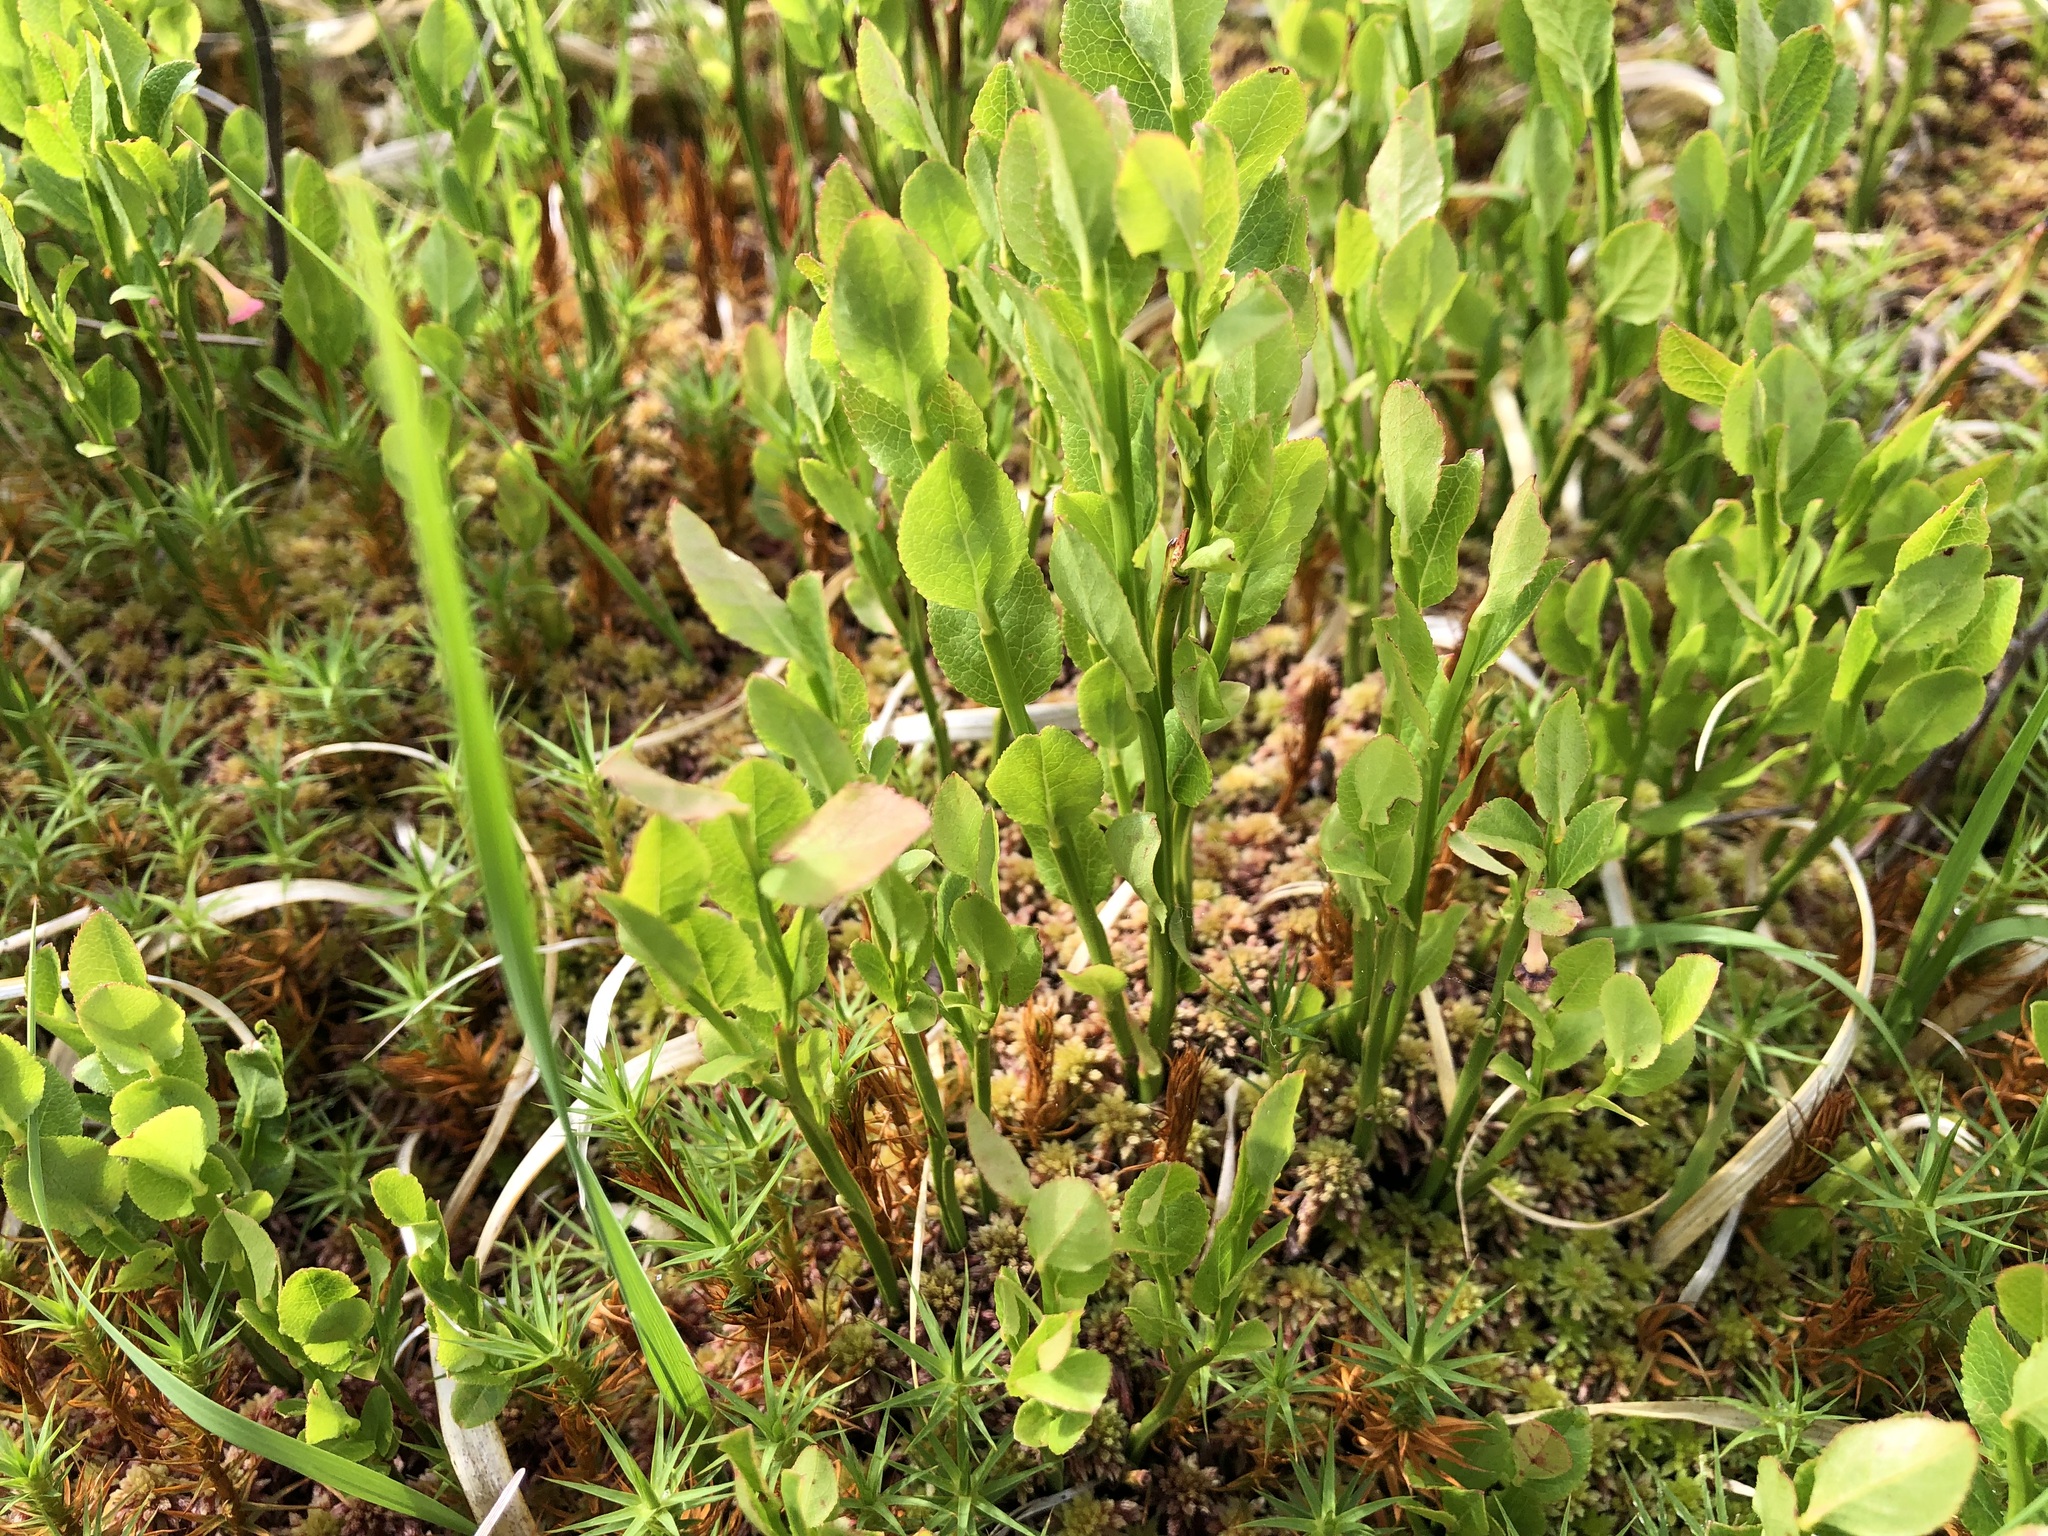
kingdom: Plantae
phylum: Tracheophyta
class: Magnoliopsida
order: Ericales
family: Ericaceae
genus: Vaccinium
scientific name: Vaccinium myrtillus
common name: Bilberry
